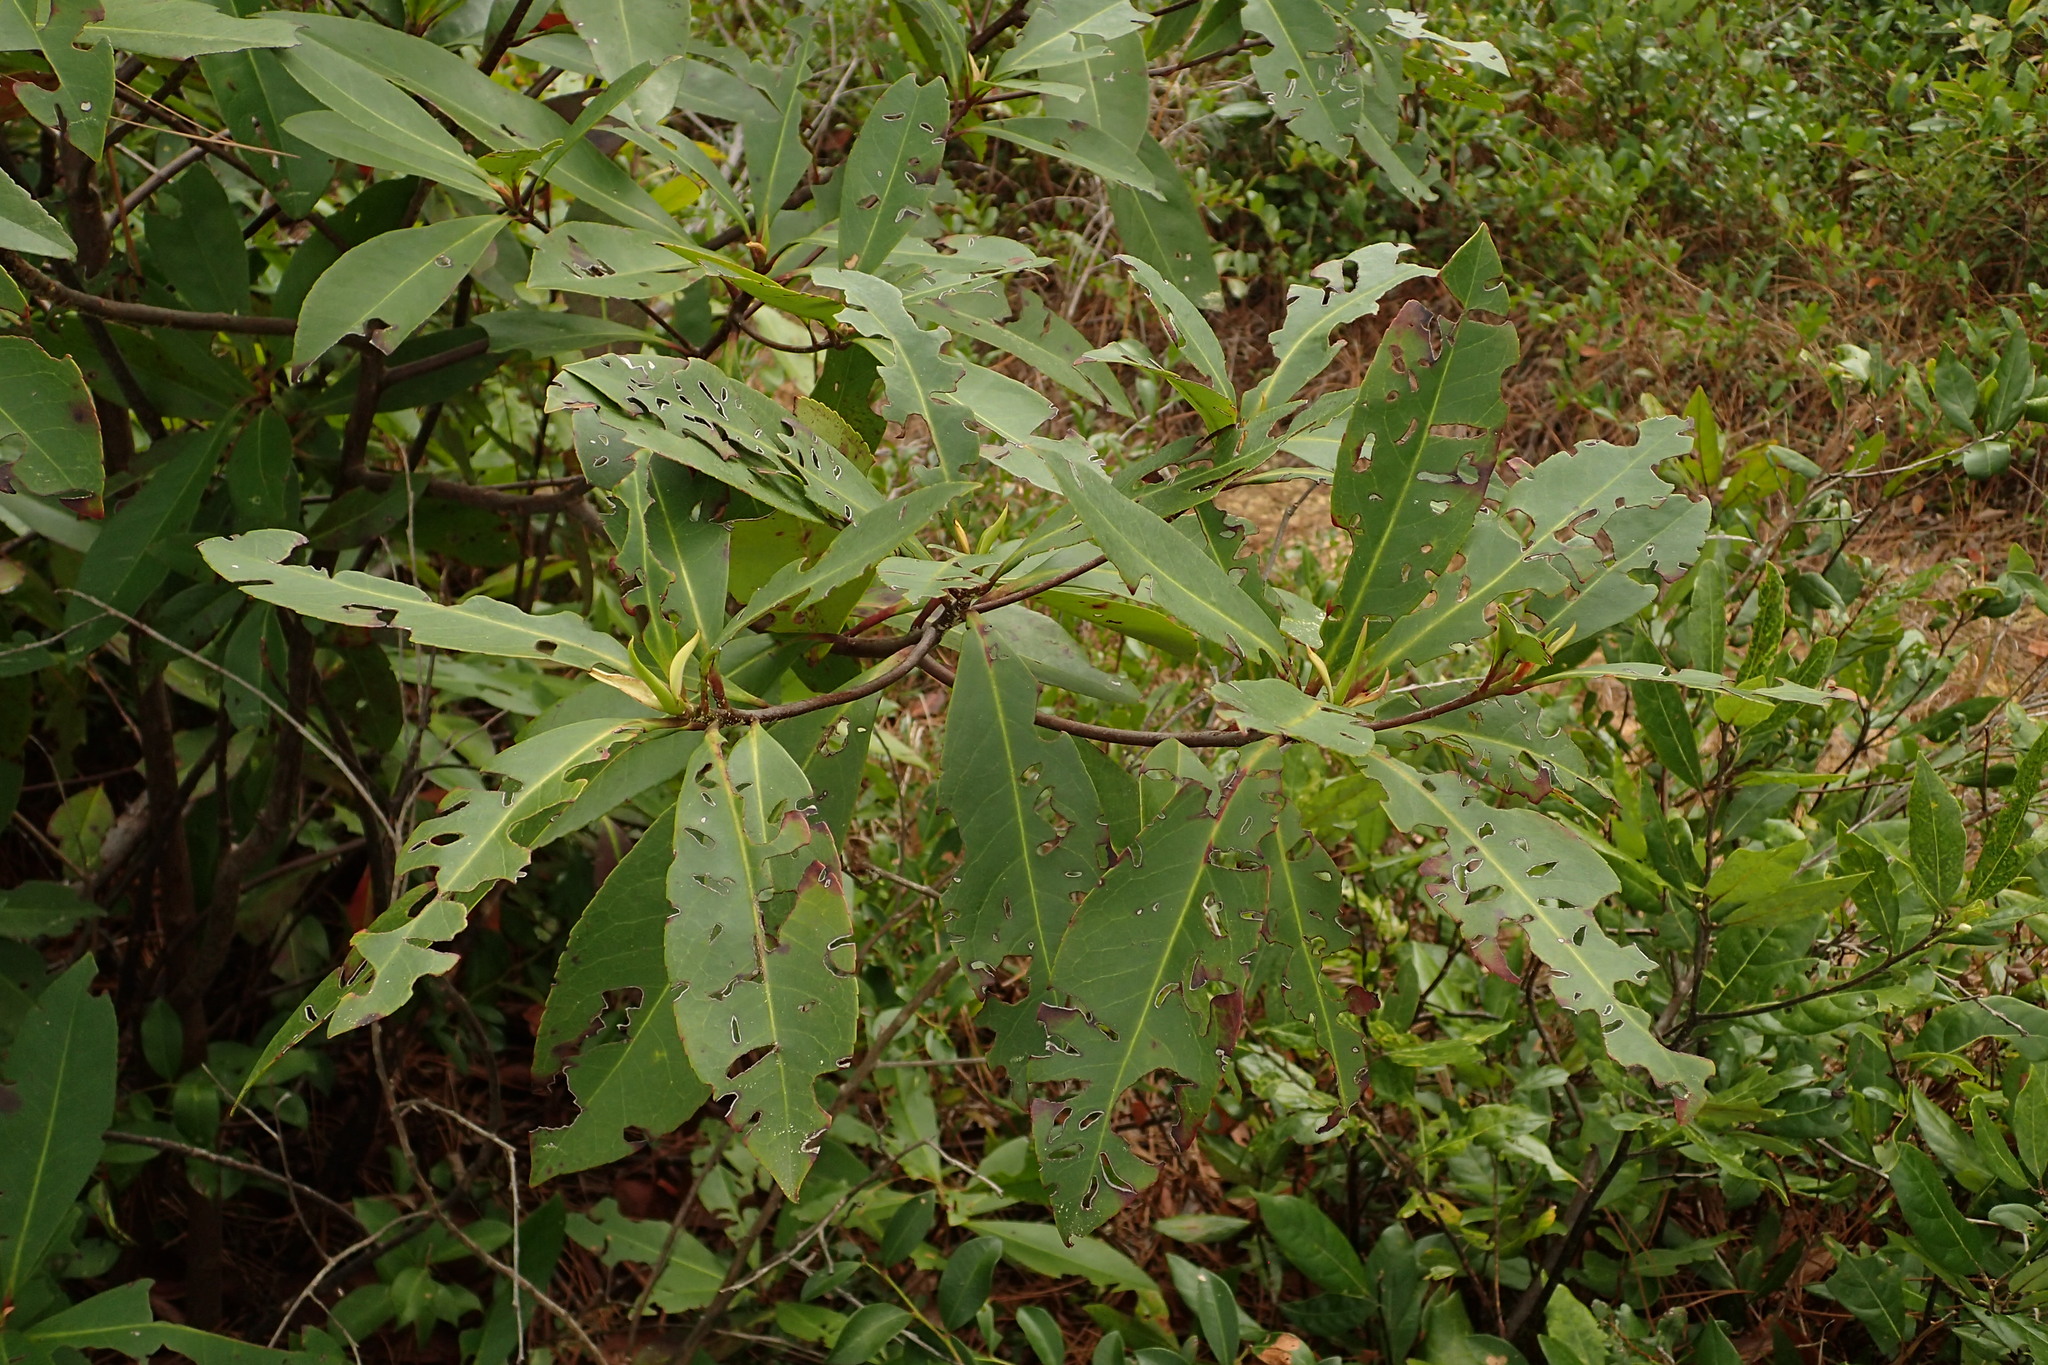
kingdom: Plantae
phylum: Tracheophyta
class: Magnoliopsida
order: Ericales
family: Theaceae
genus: Gordonia
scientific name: Gordonia lasianthus
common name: Loblolly bay
